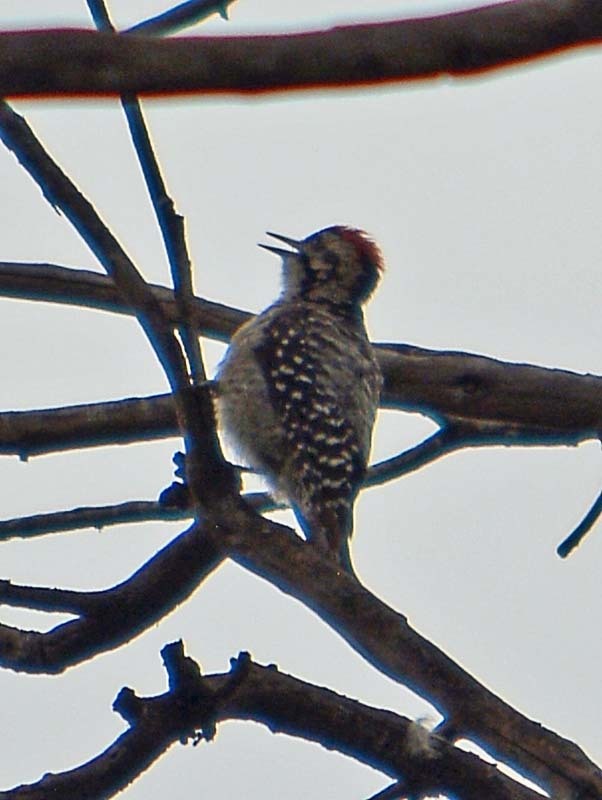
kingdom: Animalia
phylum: Chordata
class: Aves
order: Piciformes
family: Picidae
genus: Dryobates
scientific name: Dryobates scalaris
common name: Ladder-backed woodpecker
